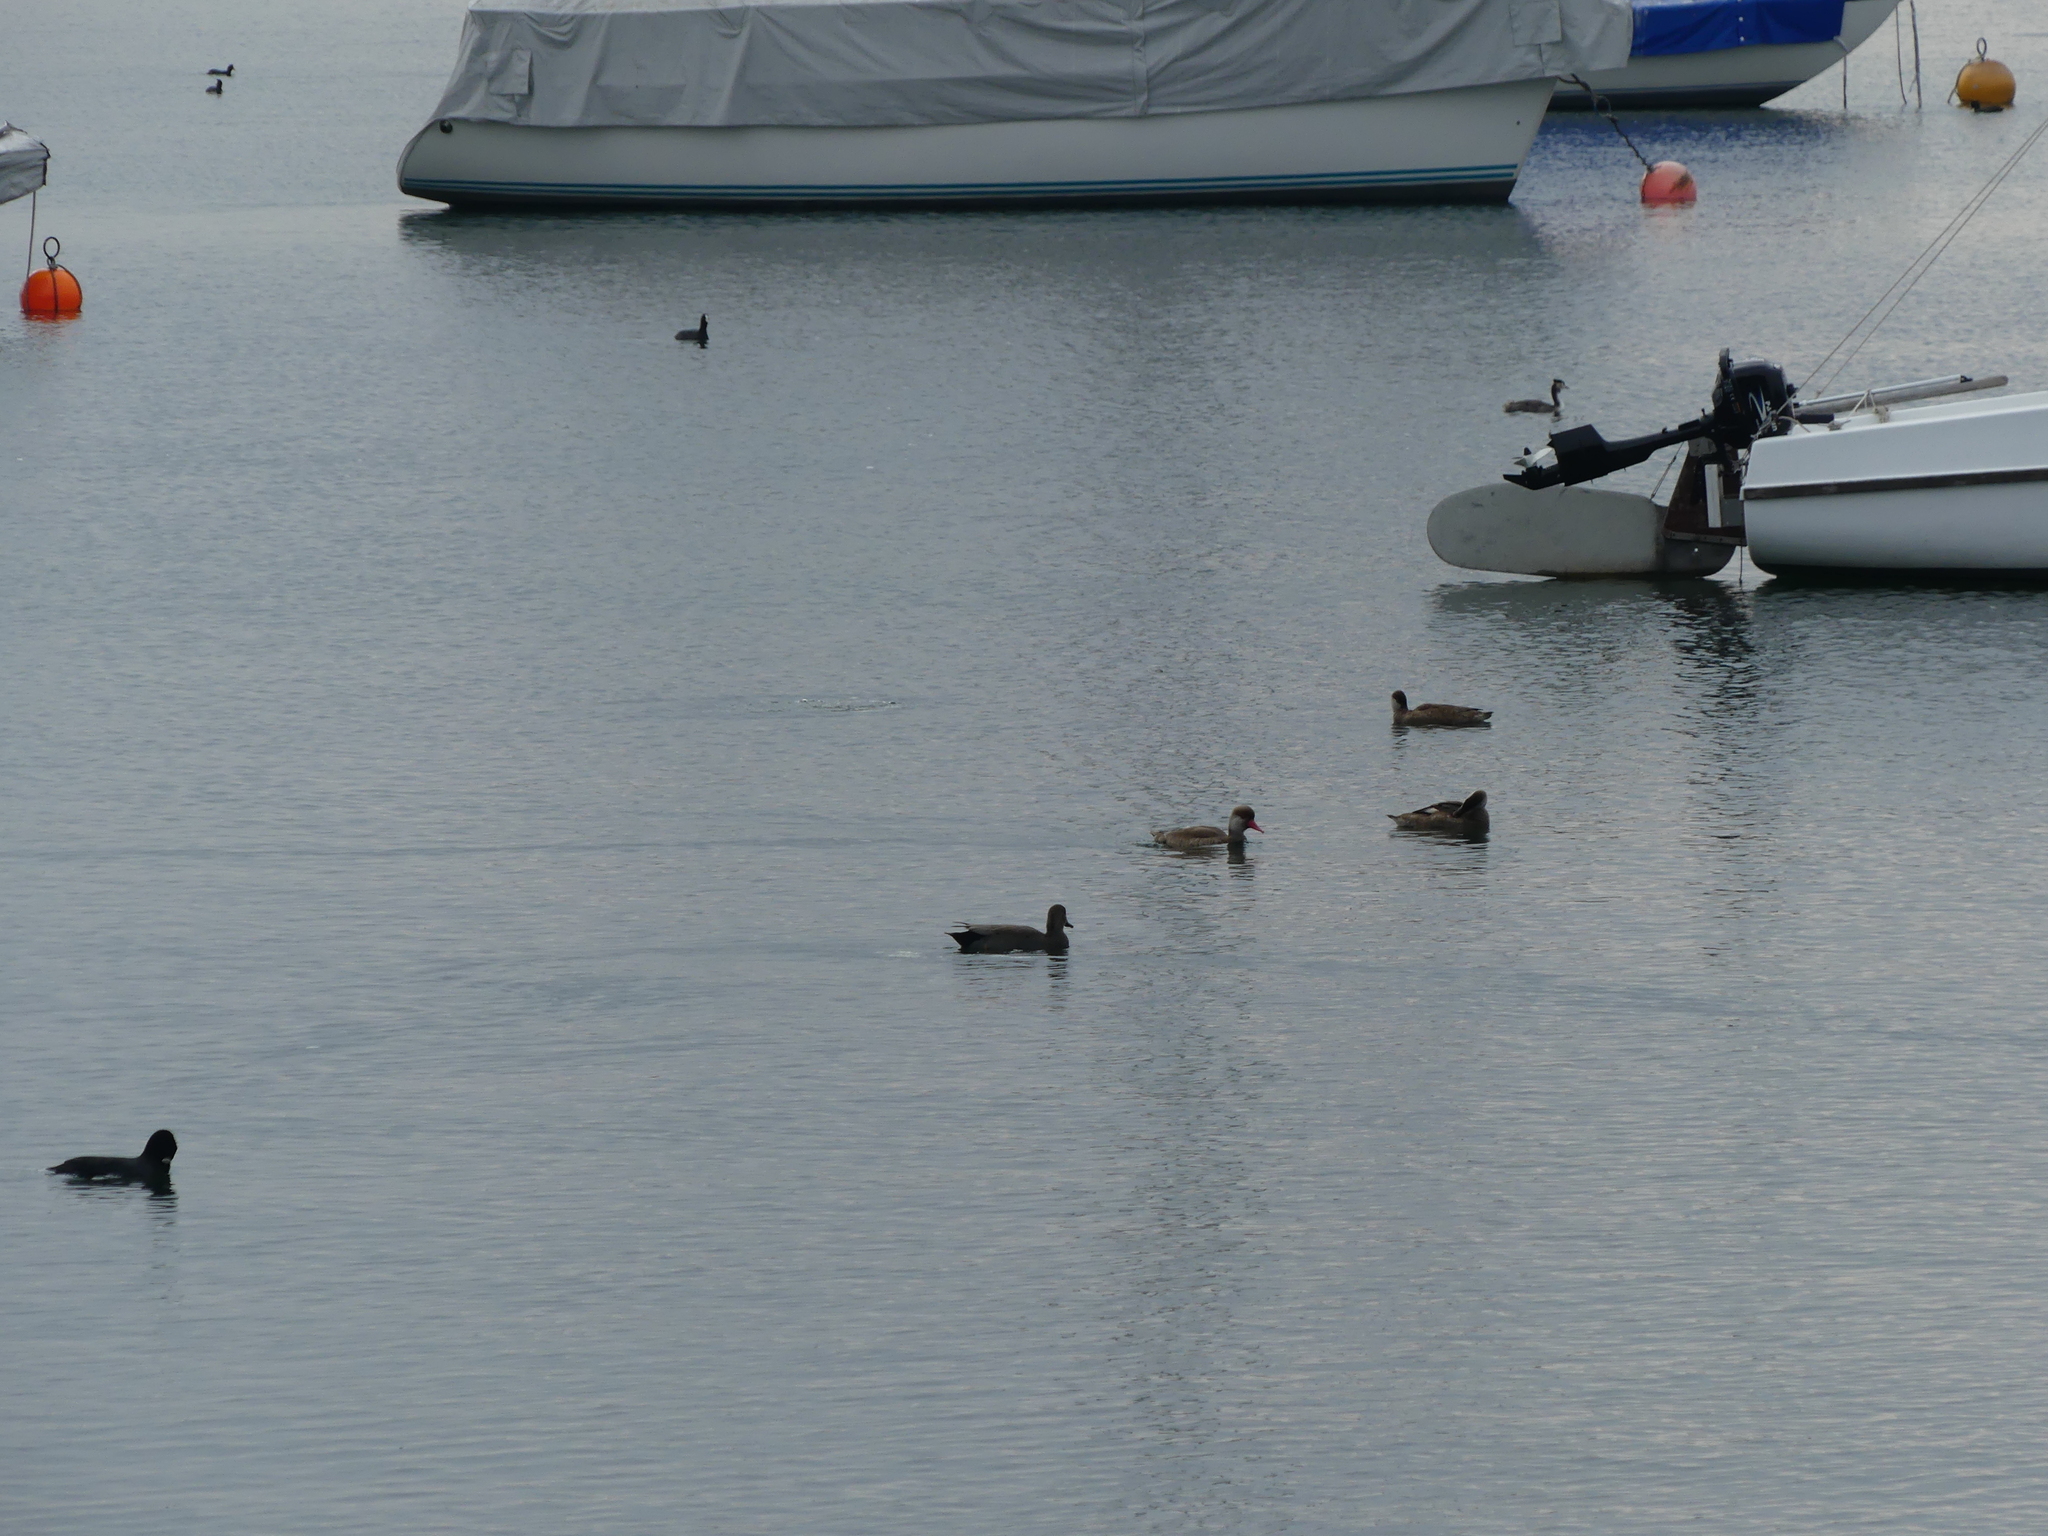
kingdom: Animalia
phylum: Chordata
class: Aves
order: Anseriformes
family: Anatidae
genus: Netta
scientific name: Netta rufina
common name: Red-crested pochard
